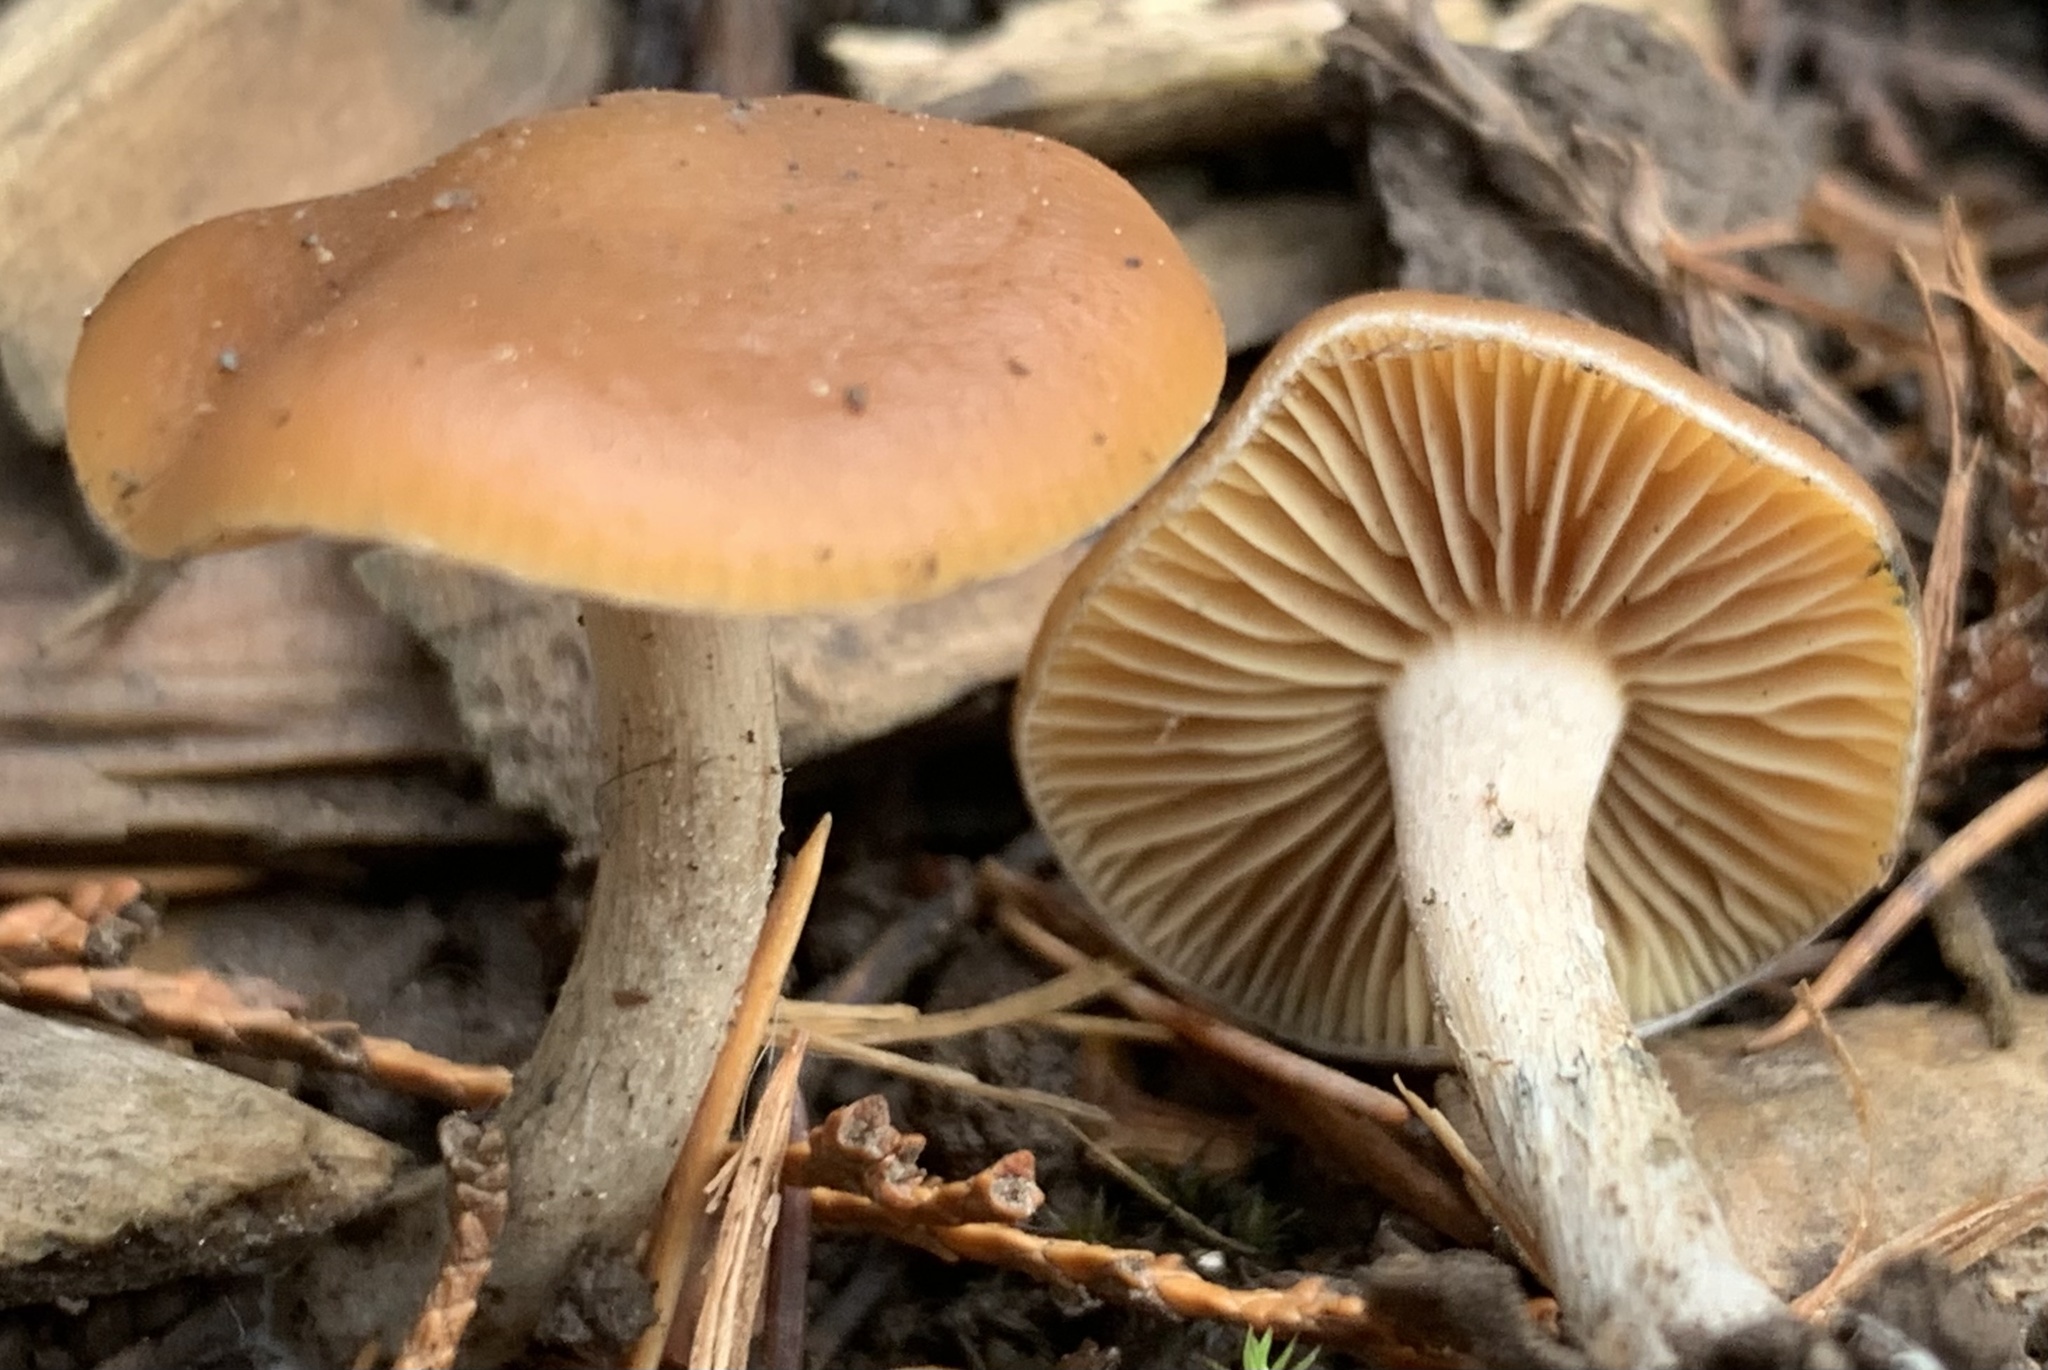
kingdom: Fungi
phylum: Basidiomycota
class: Agaricomycetes
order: Agaricales
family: Hymenogastraceae
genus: Psilocybe
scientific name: Psilocybe cyanescens
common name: Blueleg brownie
